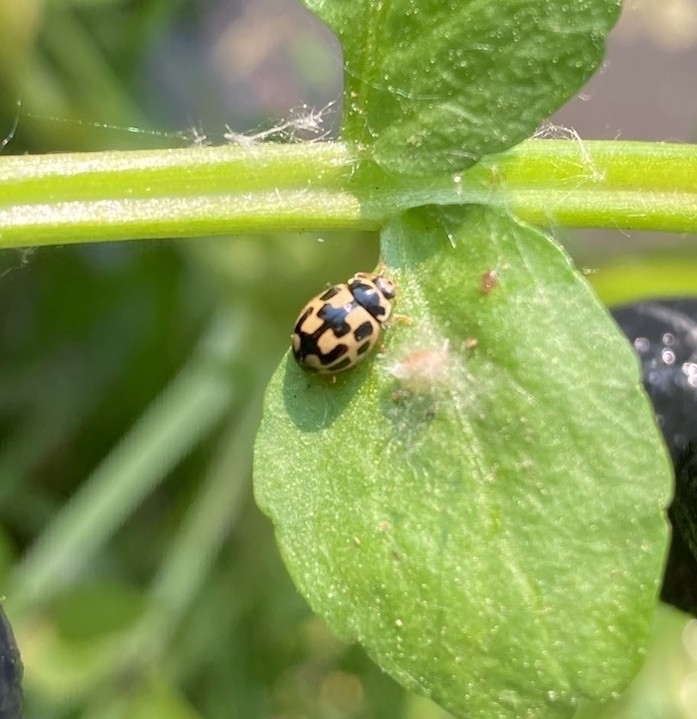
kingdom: Animalia
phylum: Arthropoda
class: Insecta
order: Coleoptera
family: Coccinellidae
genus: Propylaea
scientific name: Propylaea quatuordecimpunctata
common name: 14-spotted ladybird beetle
